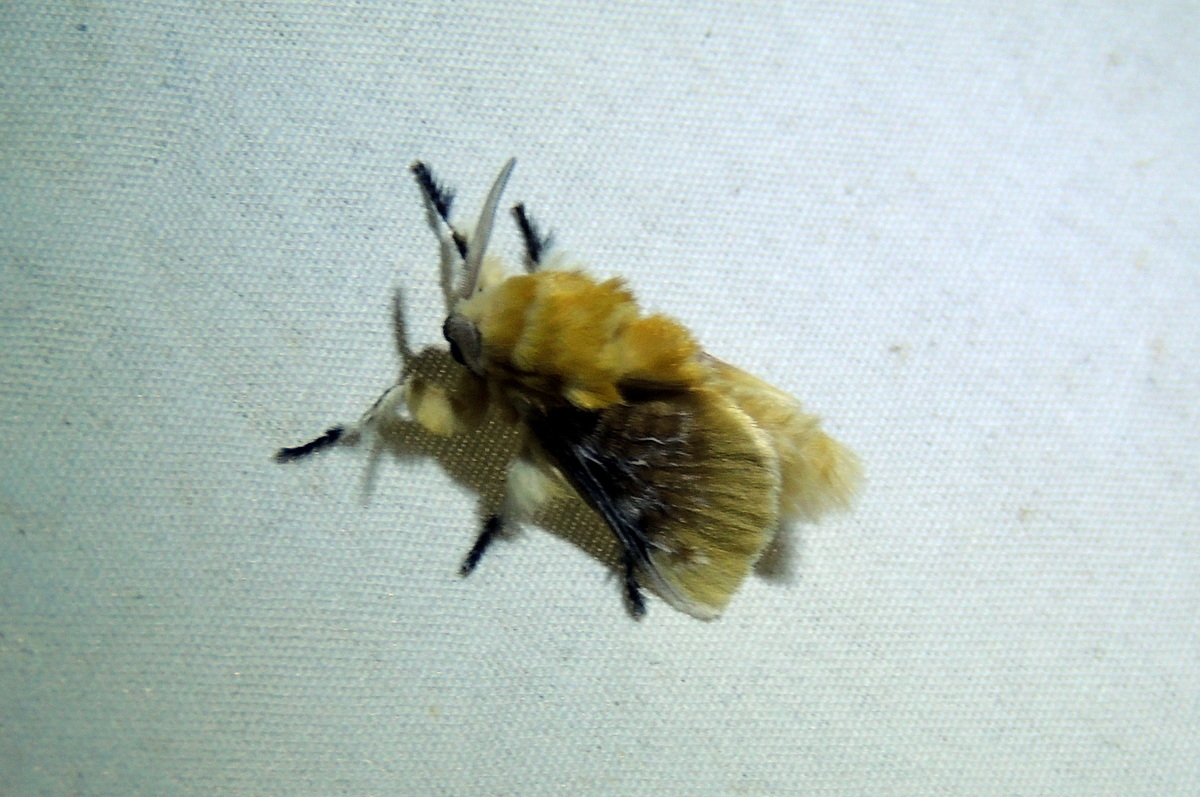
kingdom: Animalia
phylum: Arthropoda
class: Insecta
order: Lepidoptera
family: Megalopygidae
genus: Megalopyge
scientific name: Megalopyge opercularis
